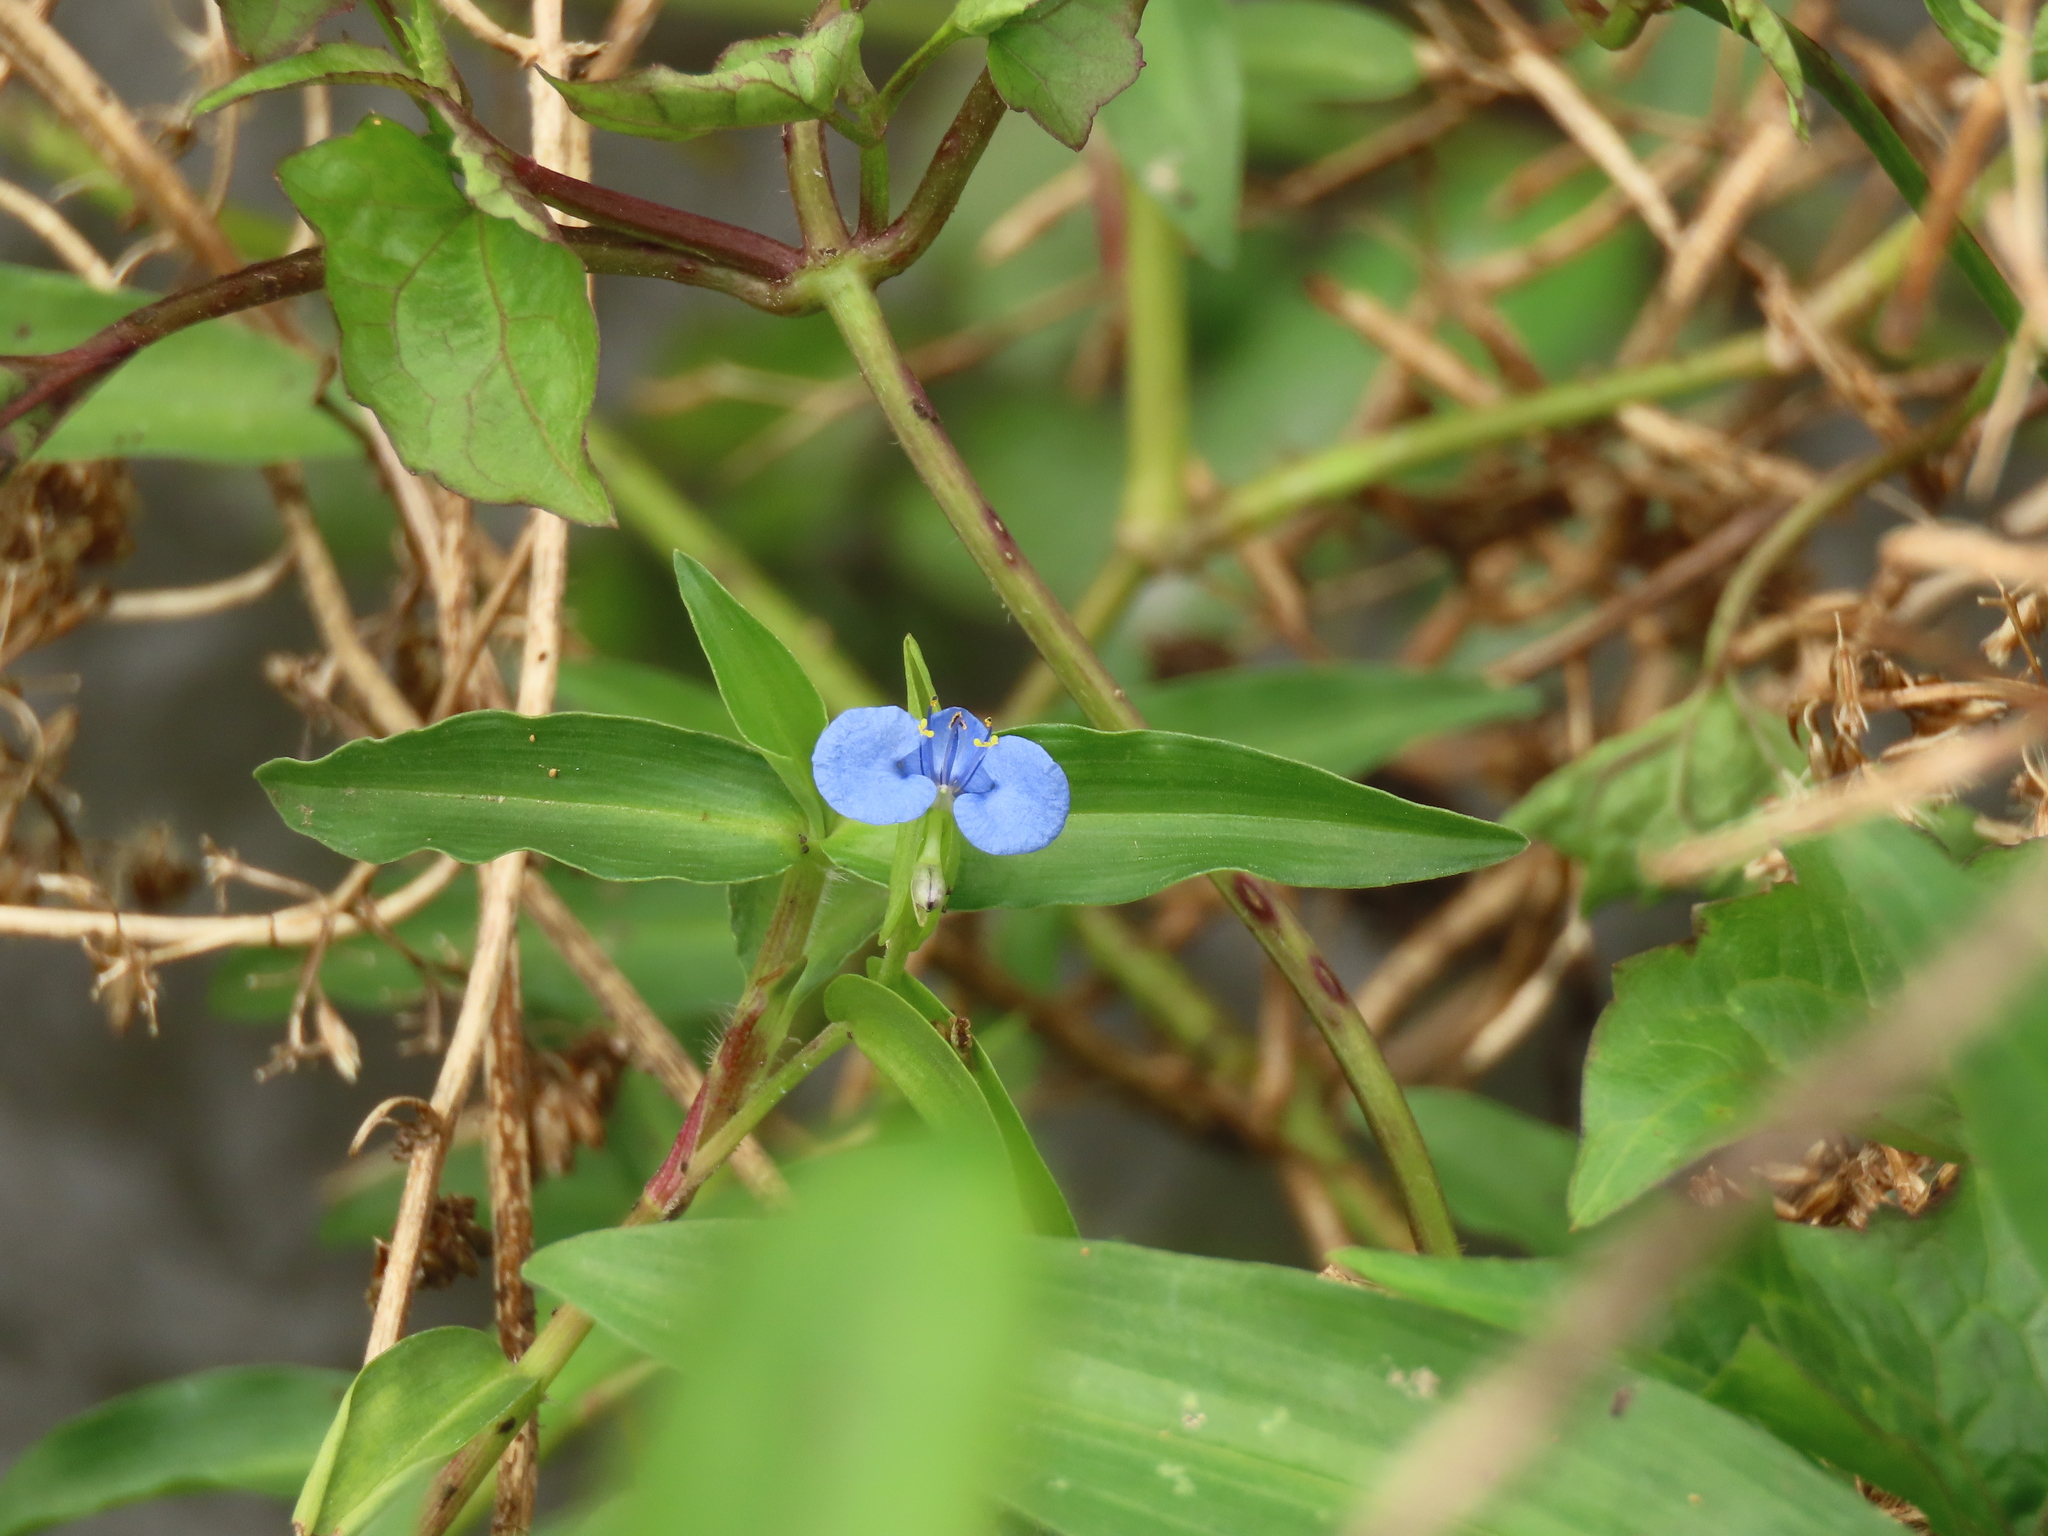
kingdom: Plantae
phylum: Tracheophyta
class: Liliopsida
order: Commelinales
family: Commelinaceae
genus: Commelina
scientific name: Commelina diffusa
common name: Climbing dayflower
